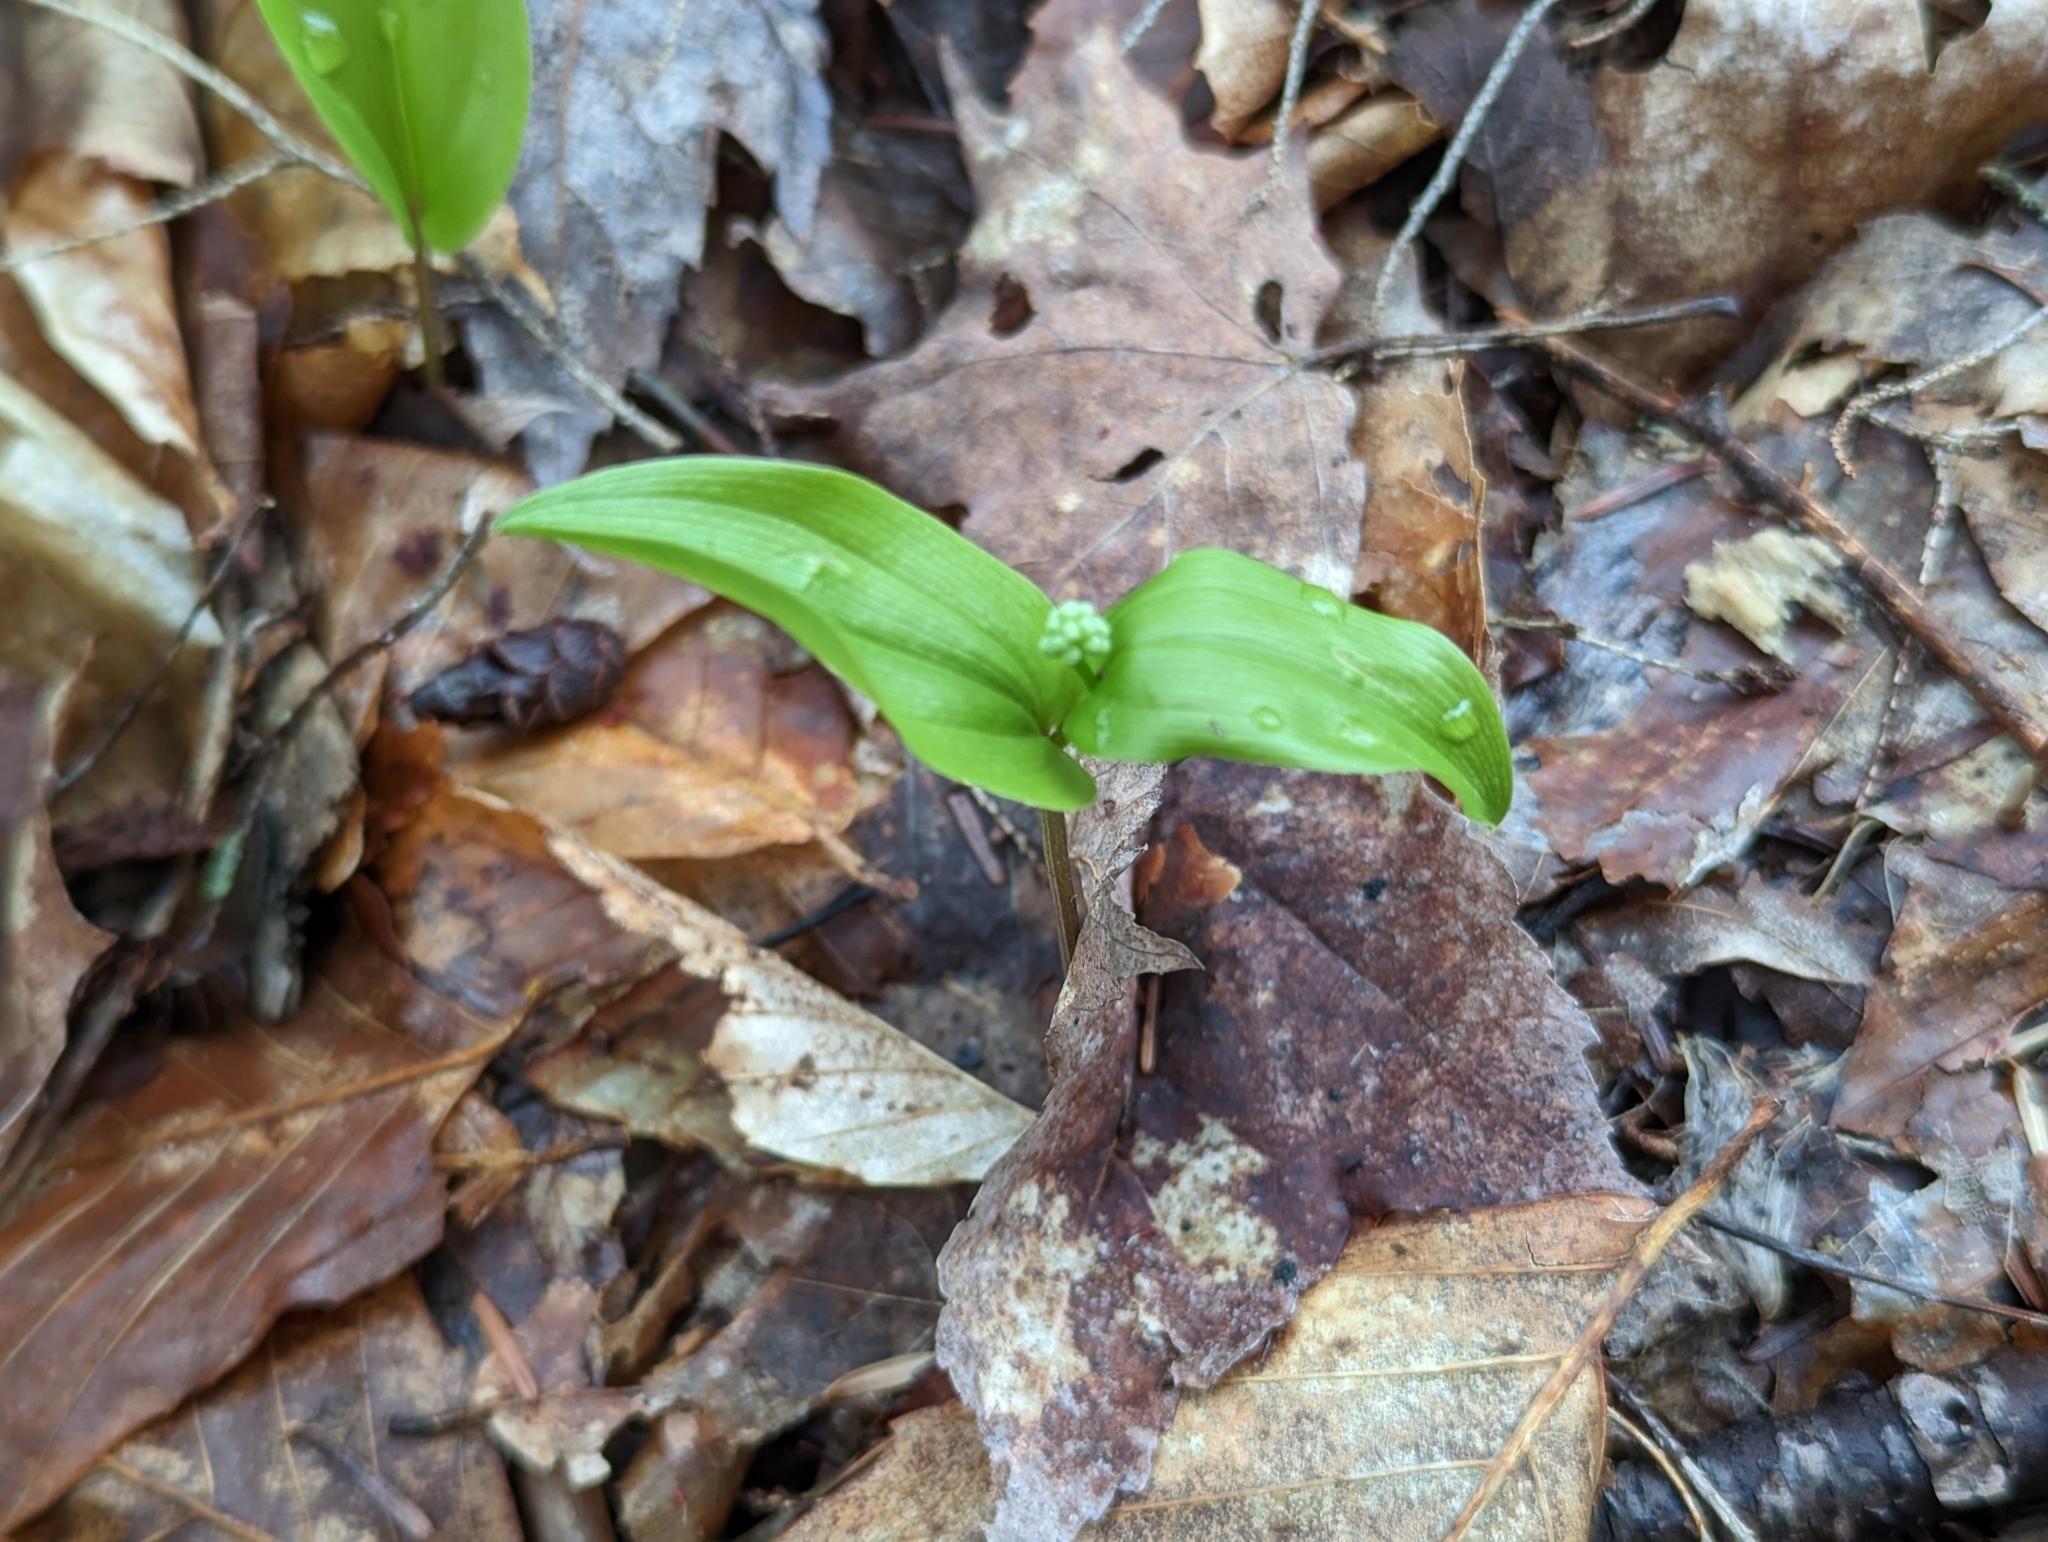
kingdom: Plantae
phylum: Tracheophyta
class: Liliopsida
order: Asparagales
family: Asparagaceae
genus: Maianthemum
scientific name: Maianthemum canadense
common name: False lily-of-the-valley
